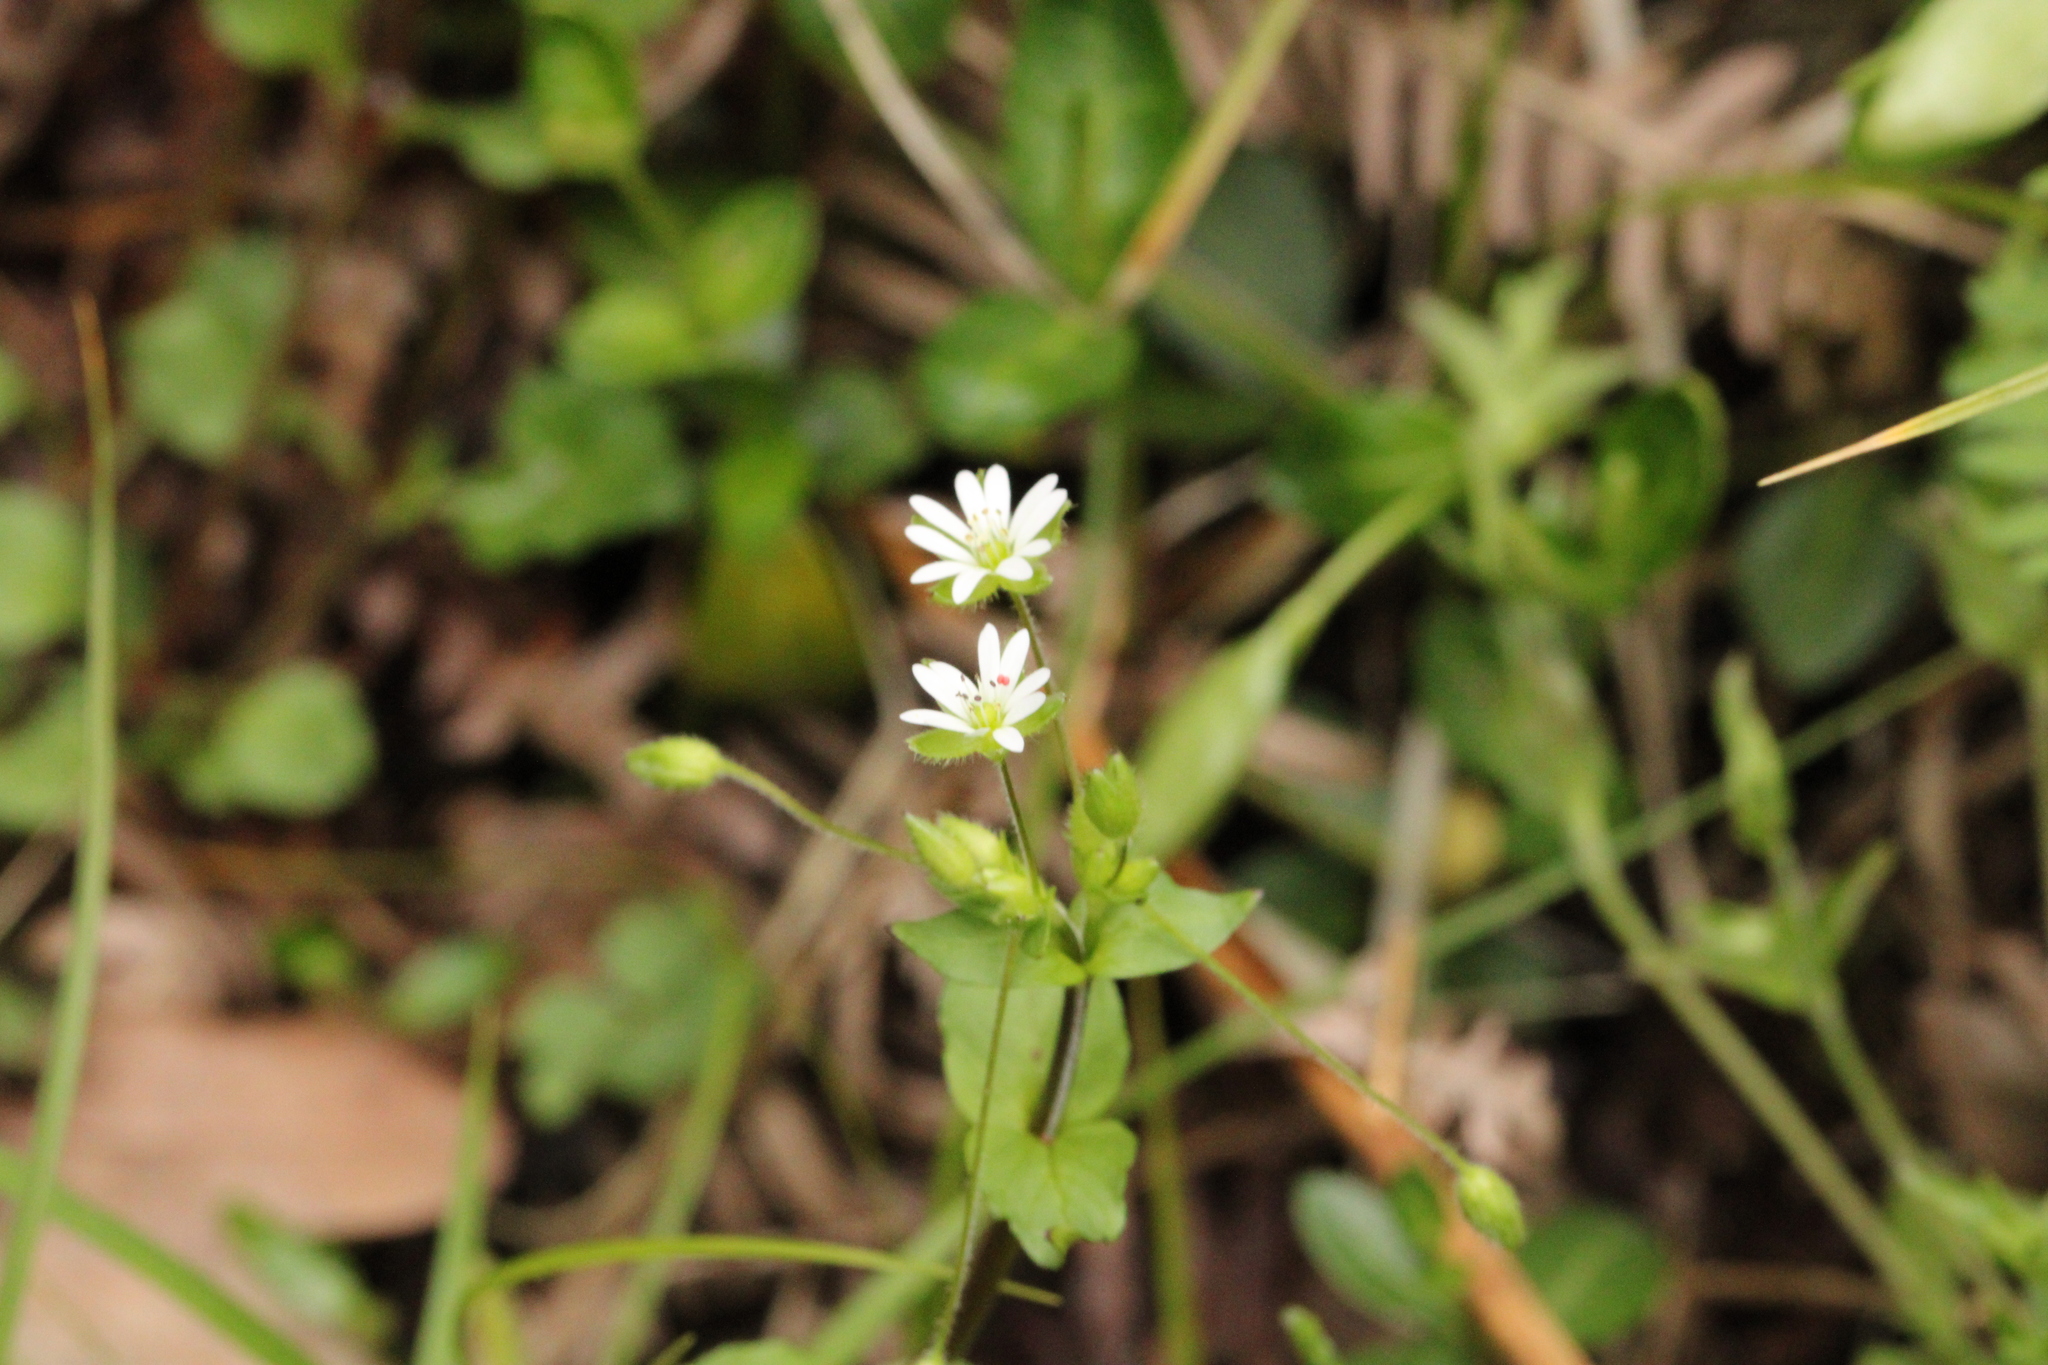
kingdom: Plantae
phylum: Tracheophyta
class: Magnoliopsida
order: Caryophyllales
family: Caryophyllaceae
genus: Stellaria
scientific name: Stellaria media
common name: Common chickweed
